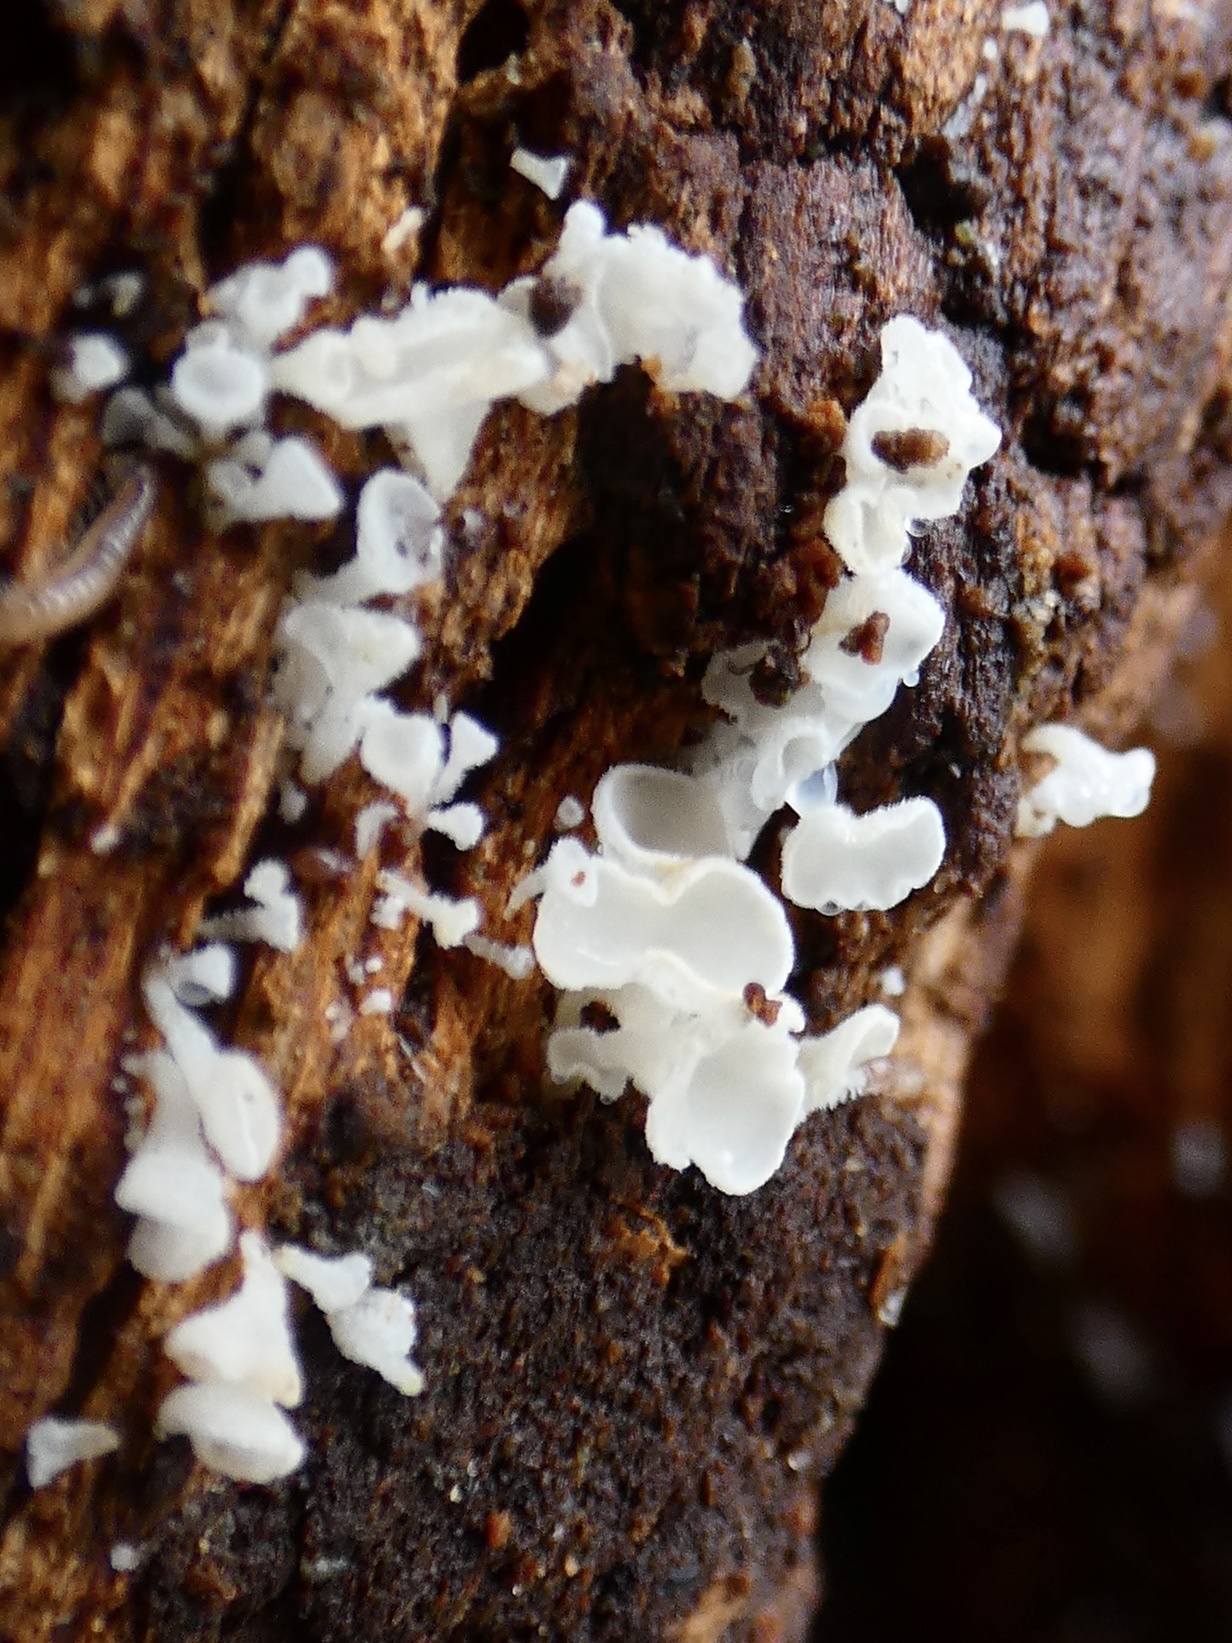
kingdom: Fungi
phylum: Ascomycota
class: Leotiomycetes
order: Helotiales
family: Lachnaceae
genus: Lachnum
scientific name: Lachnum
